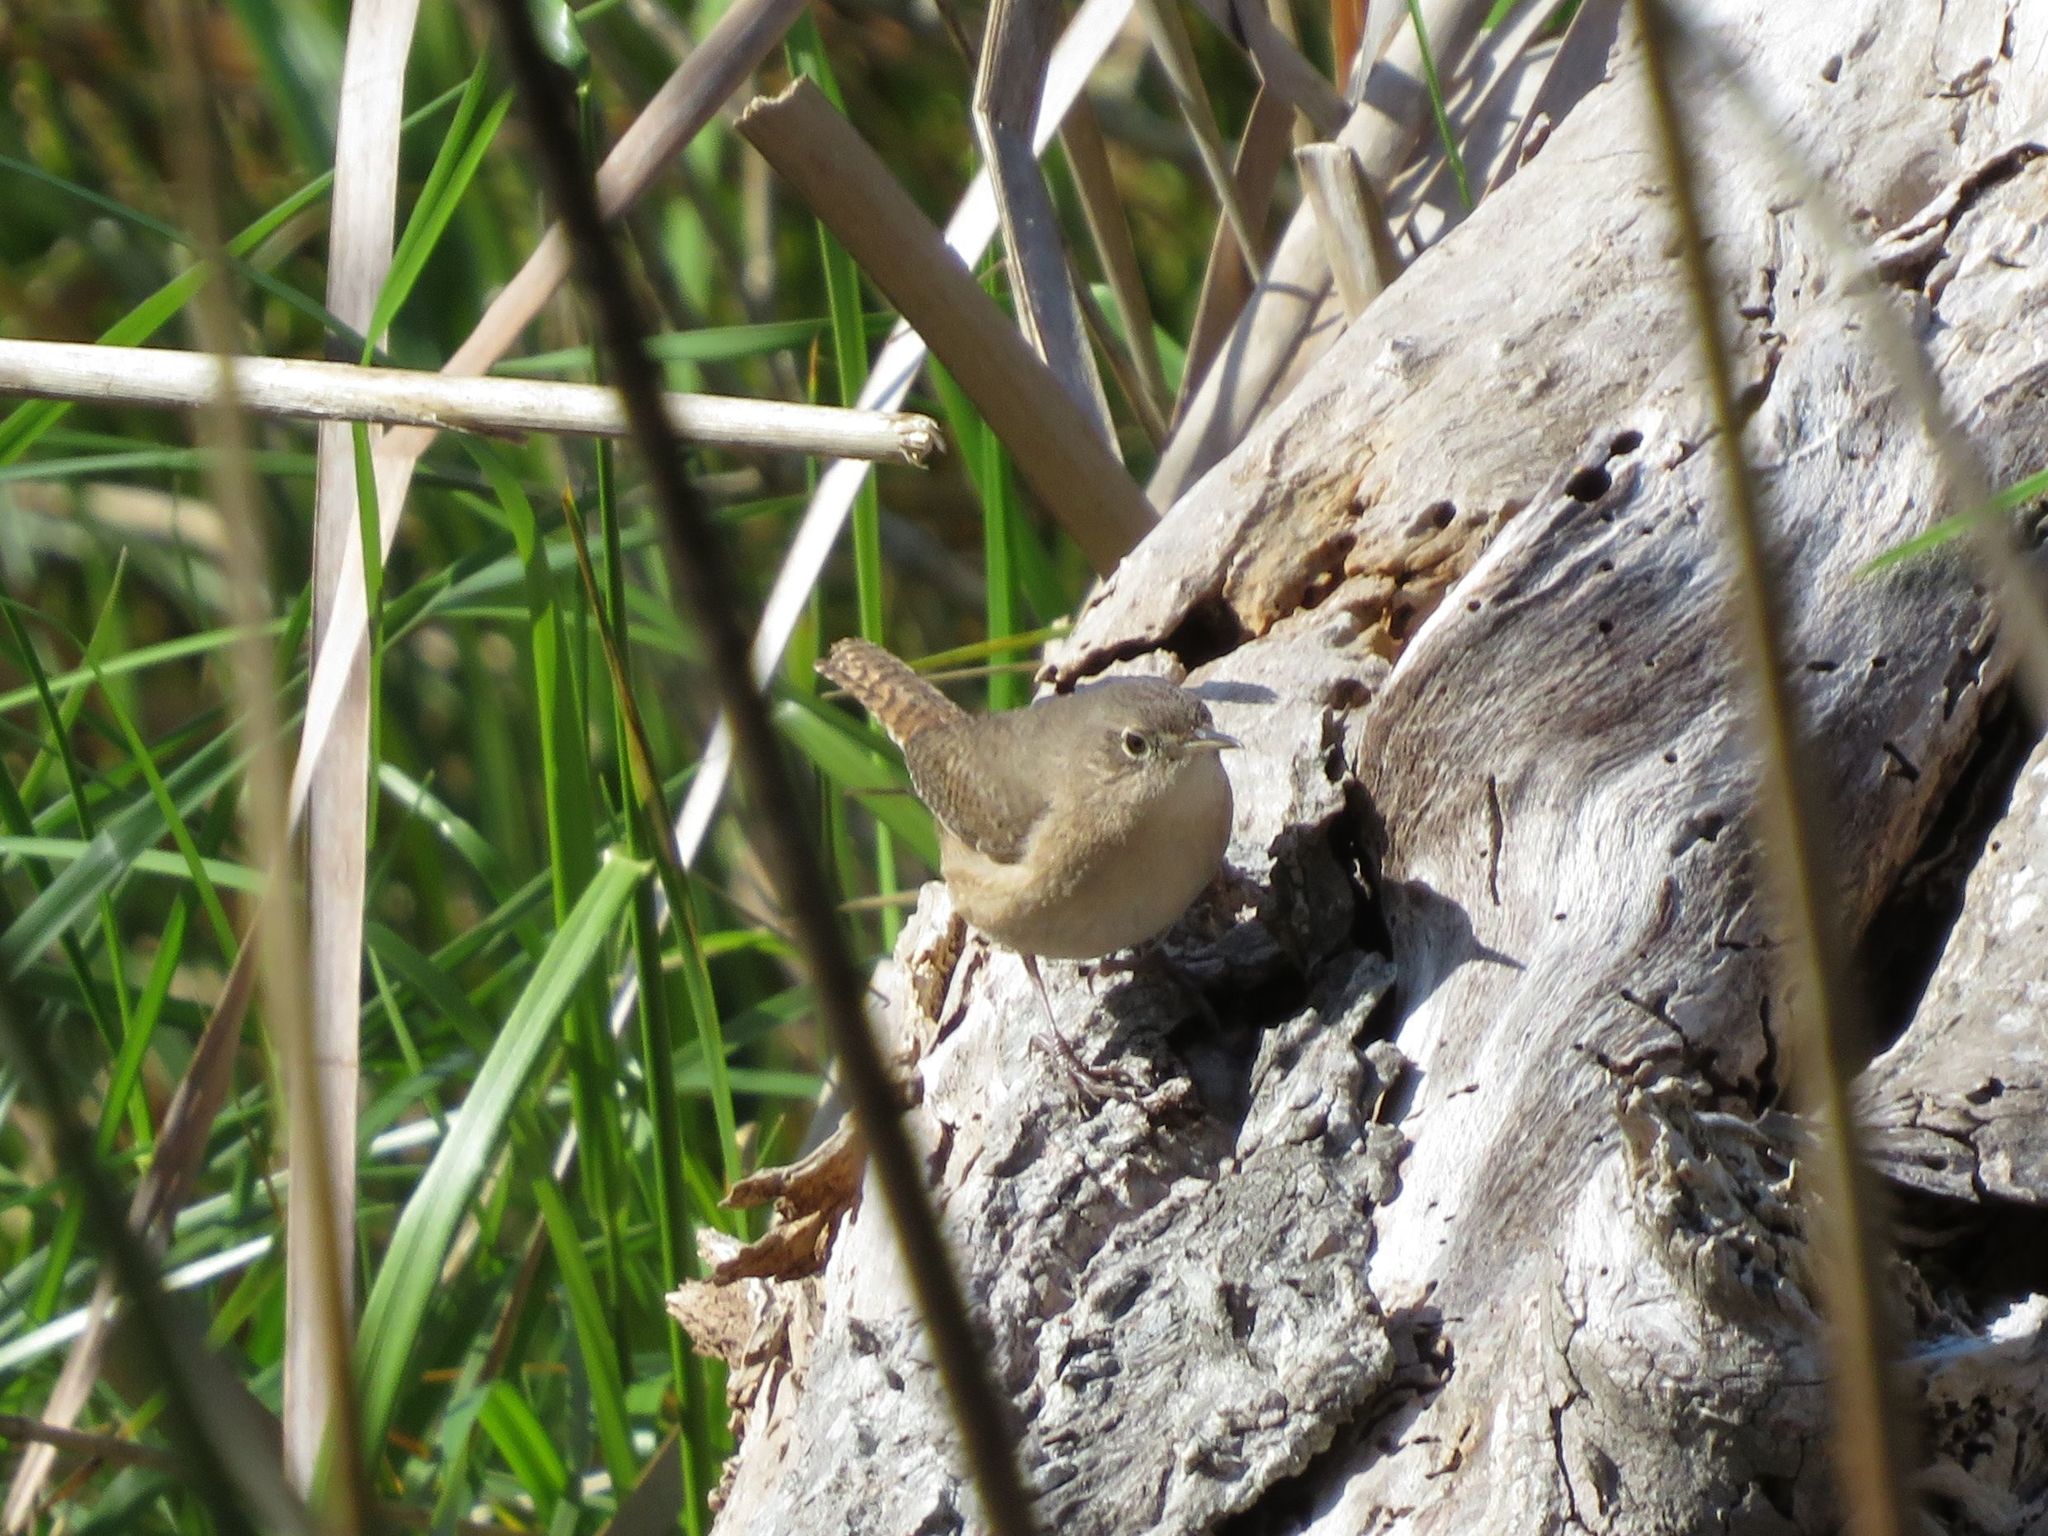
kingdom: Animalia
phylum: Chordata
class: Aves
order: Passeriformes
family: Troglodytidae
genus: Troglodytes
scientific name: Troglodytes aedon
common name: House wren
